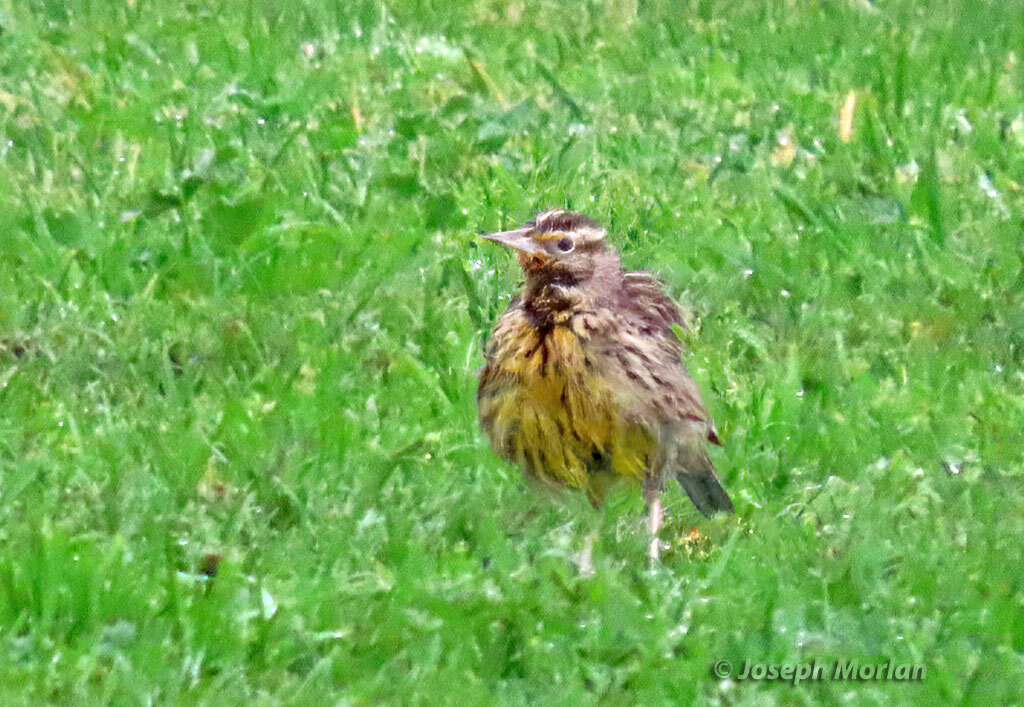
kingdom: Animalia
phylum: Chordata
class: Aves
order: Passeriformes
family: Icteridae
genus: Sturnella
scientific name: Sturnella neglecta
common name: Western meadowlark
